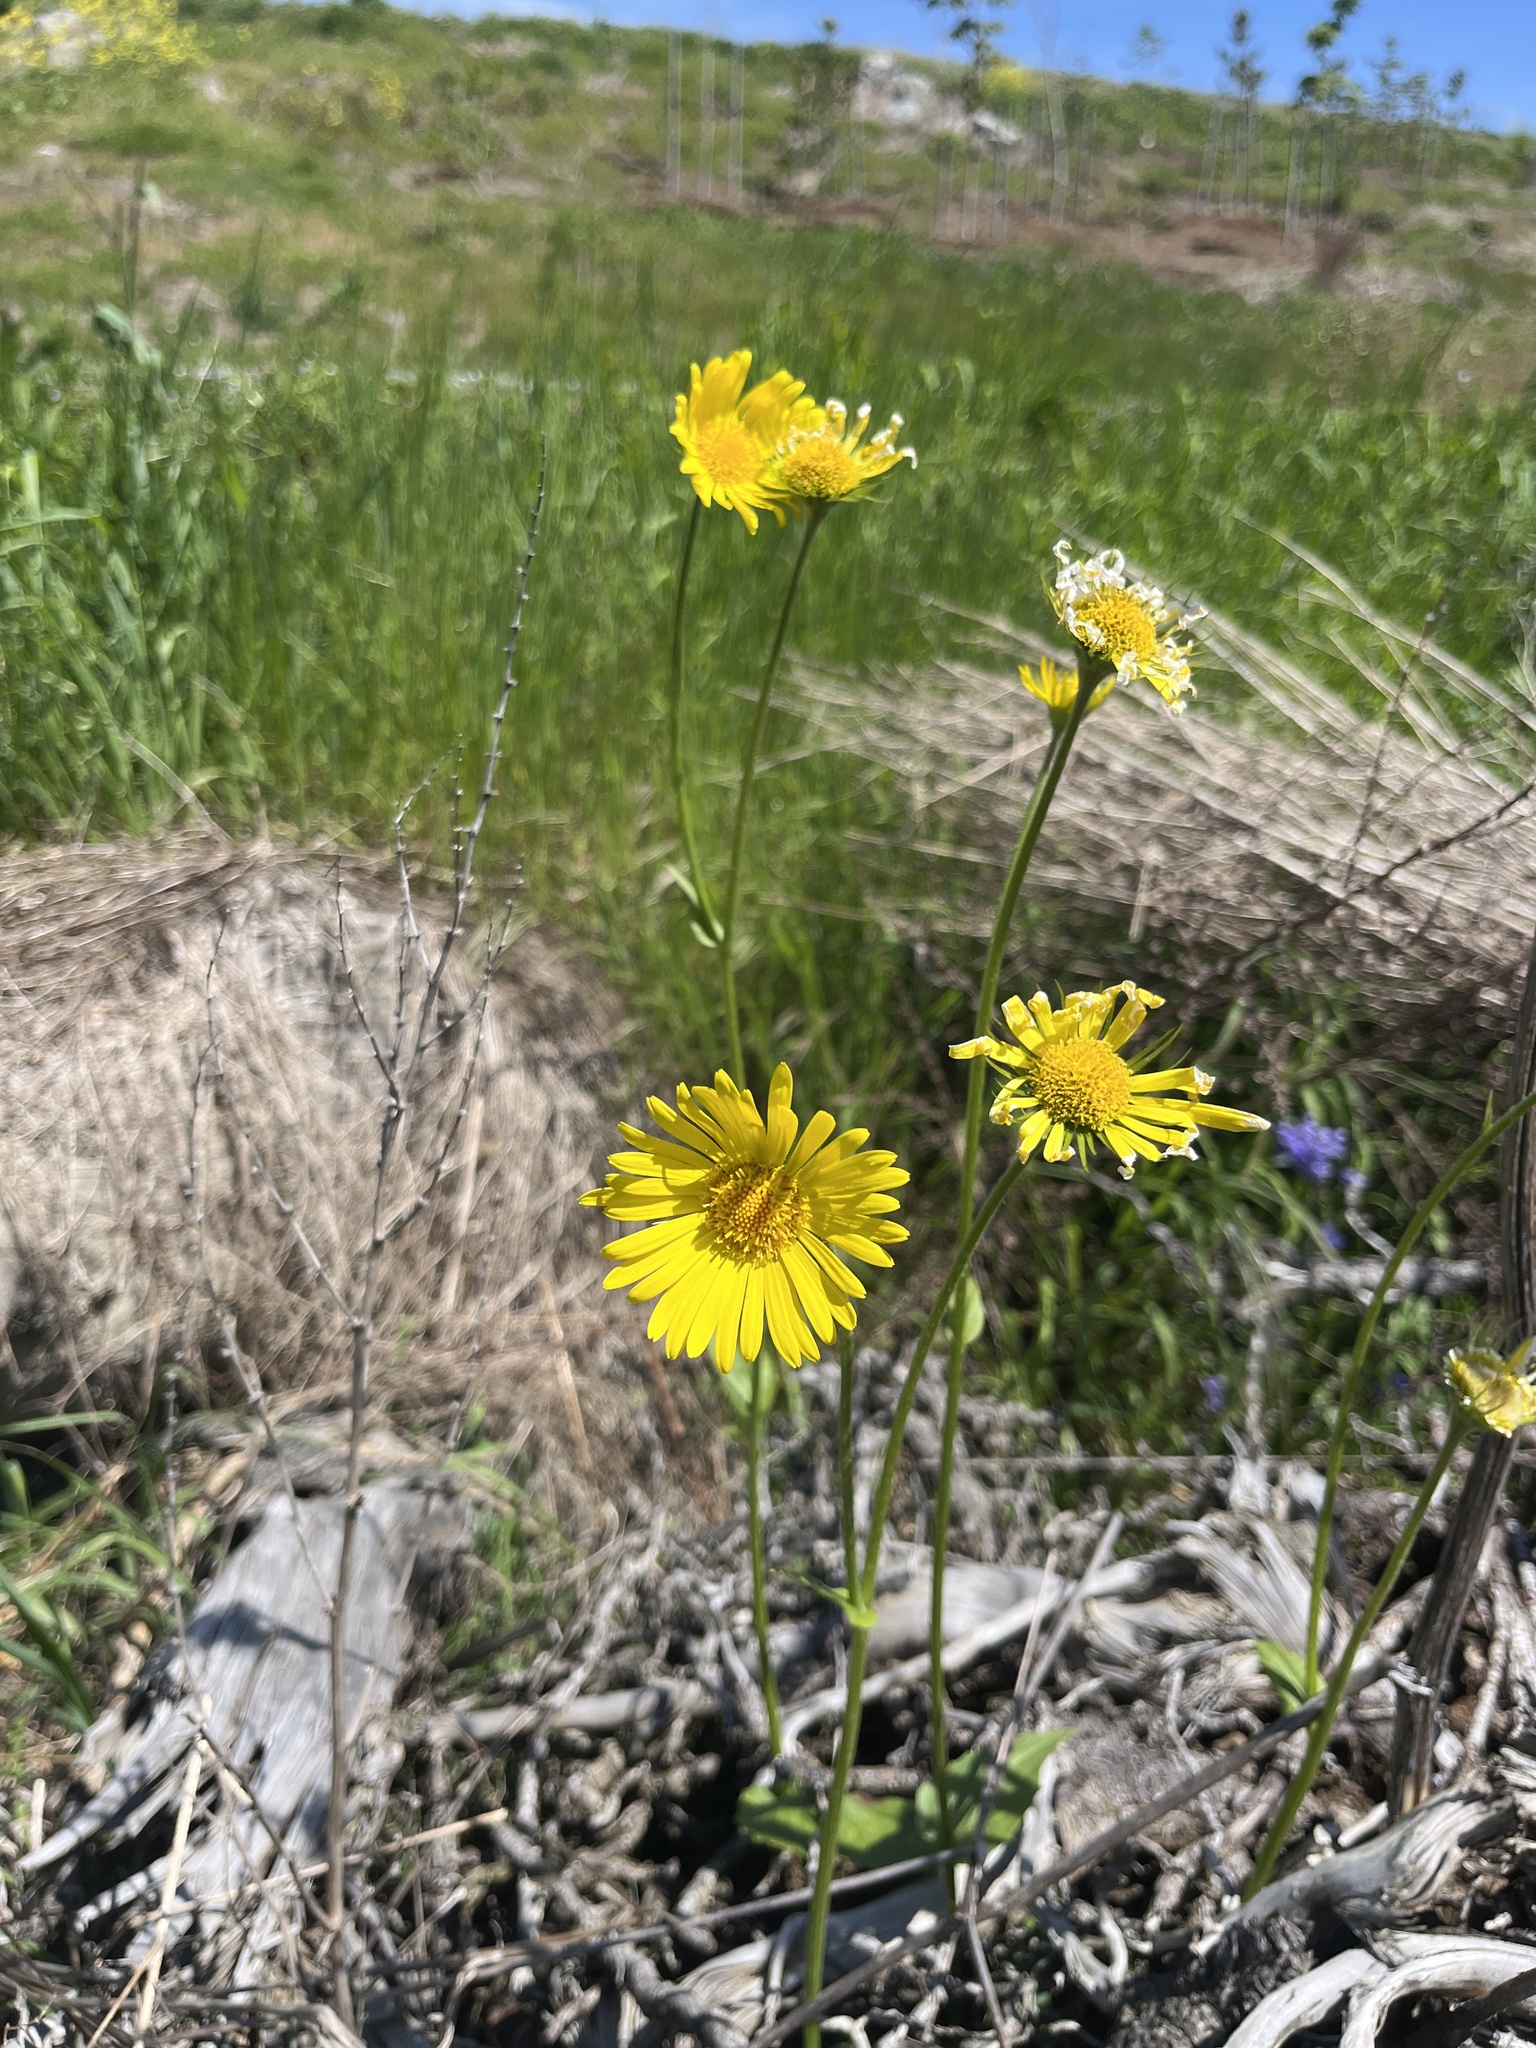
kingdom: Plantae
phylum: Tracheophyta
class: Magnoliopsida
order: Asterales
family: Asteraceae
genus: Doronicum
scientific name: Doronicum pardalianches
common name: Leopard's-bane
